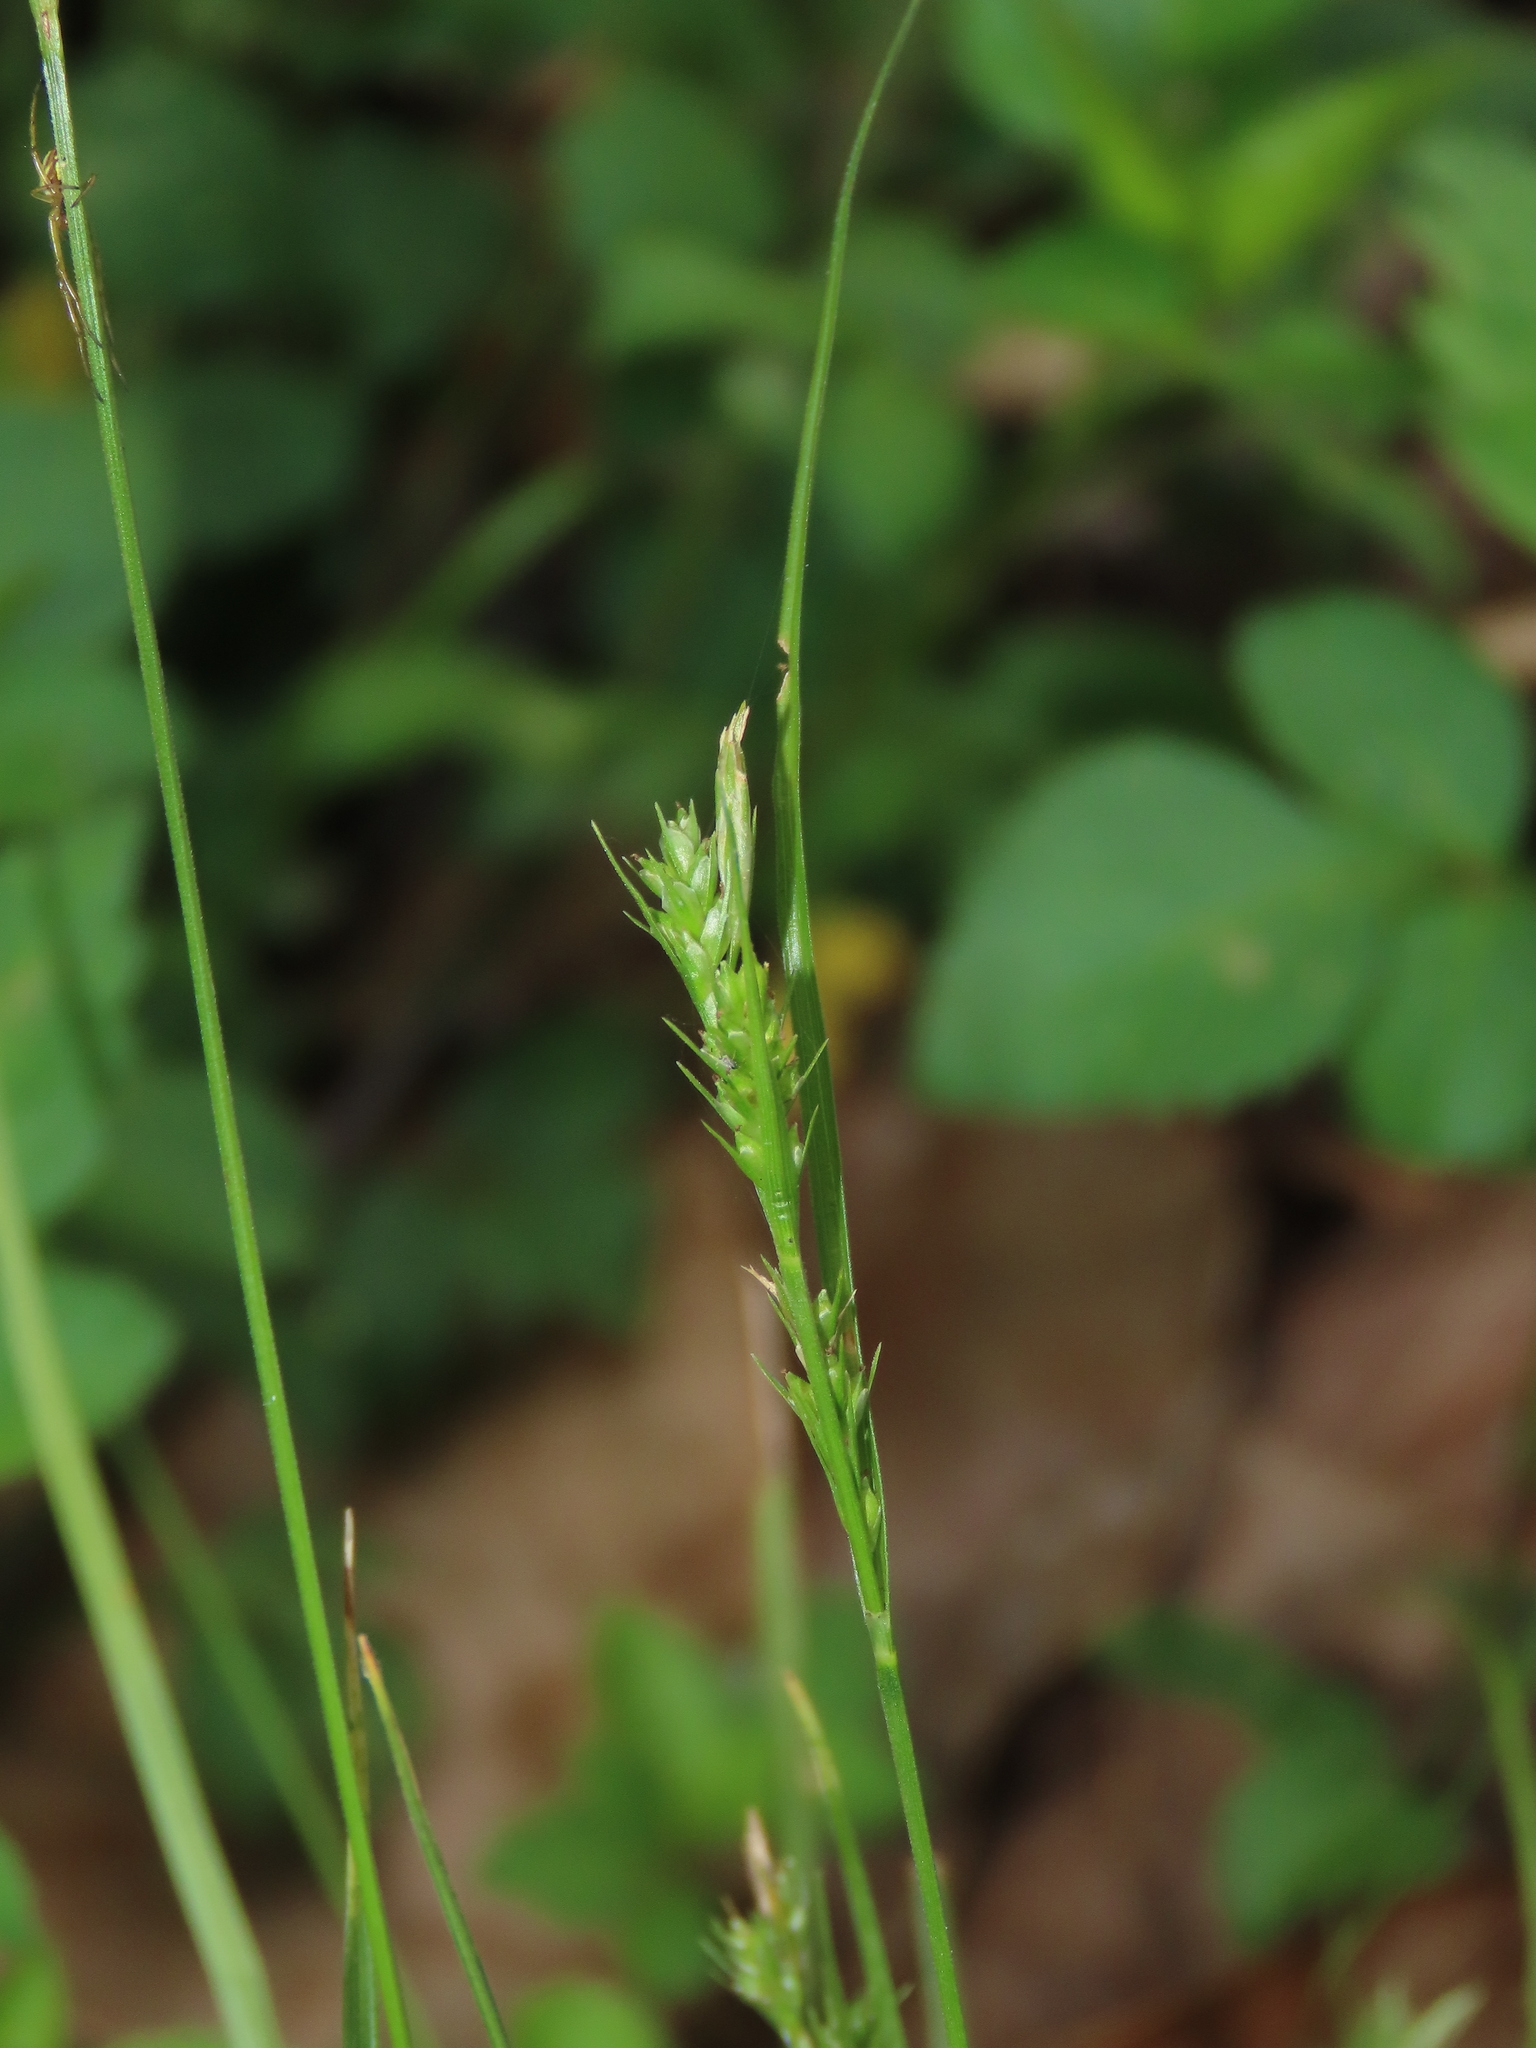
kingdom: Plantae
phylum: Tracheophyta
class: Liliopsida
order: Poales
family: Cyperaceae
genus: Carex
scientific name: Carex breviculmis
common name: Asian shortstem sedge
